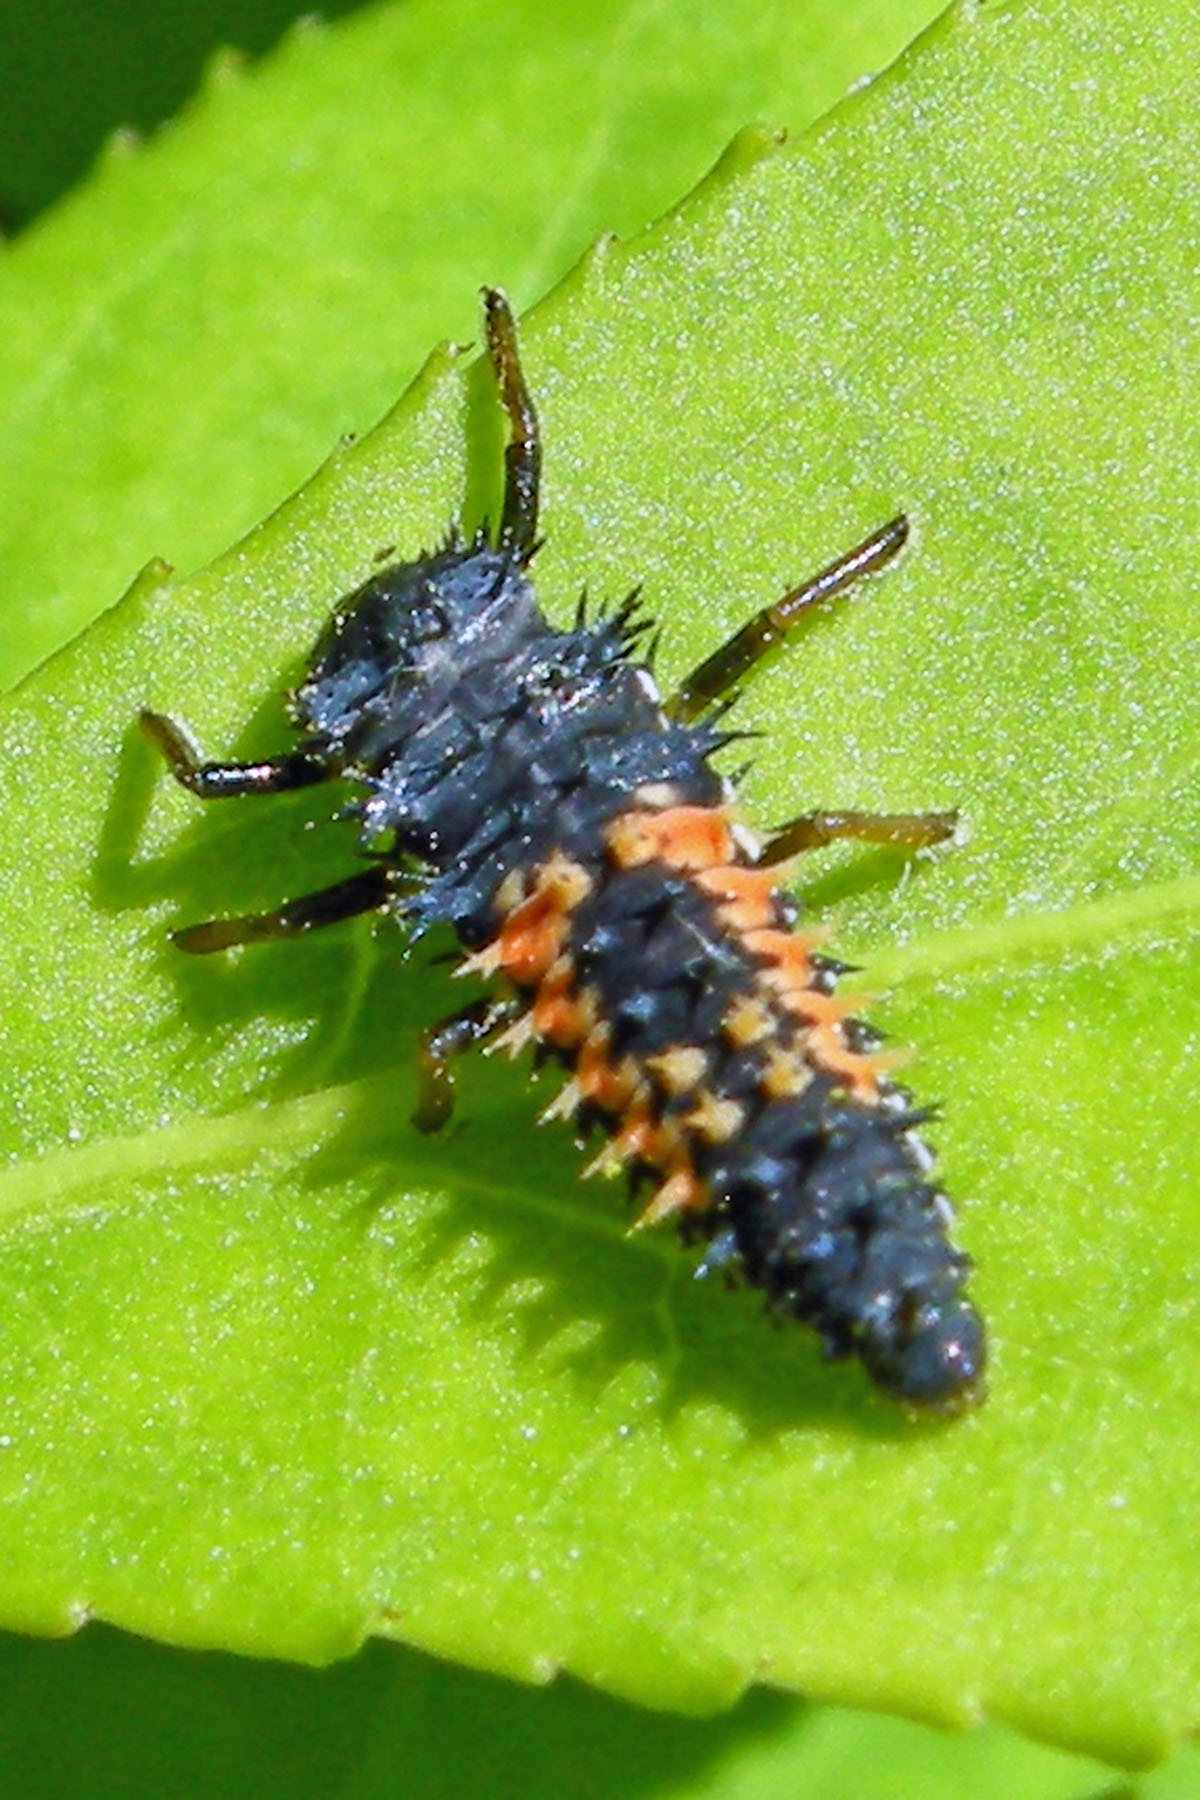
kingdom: Animalia
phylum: Arthropoda
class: Insecta
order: Coleoptera
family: Coccinellidae
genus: Harmonia
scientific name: Harmonia axyridis
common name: Harlequin ladybird
